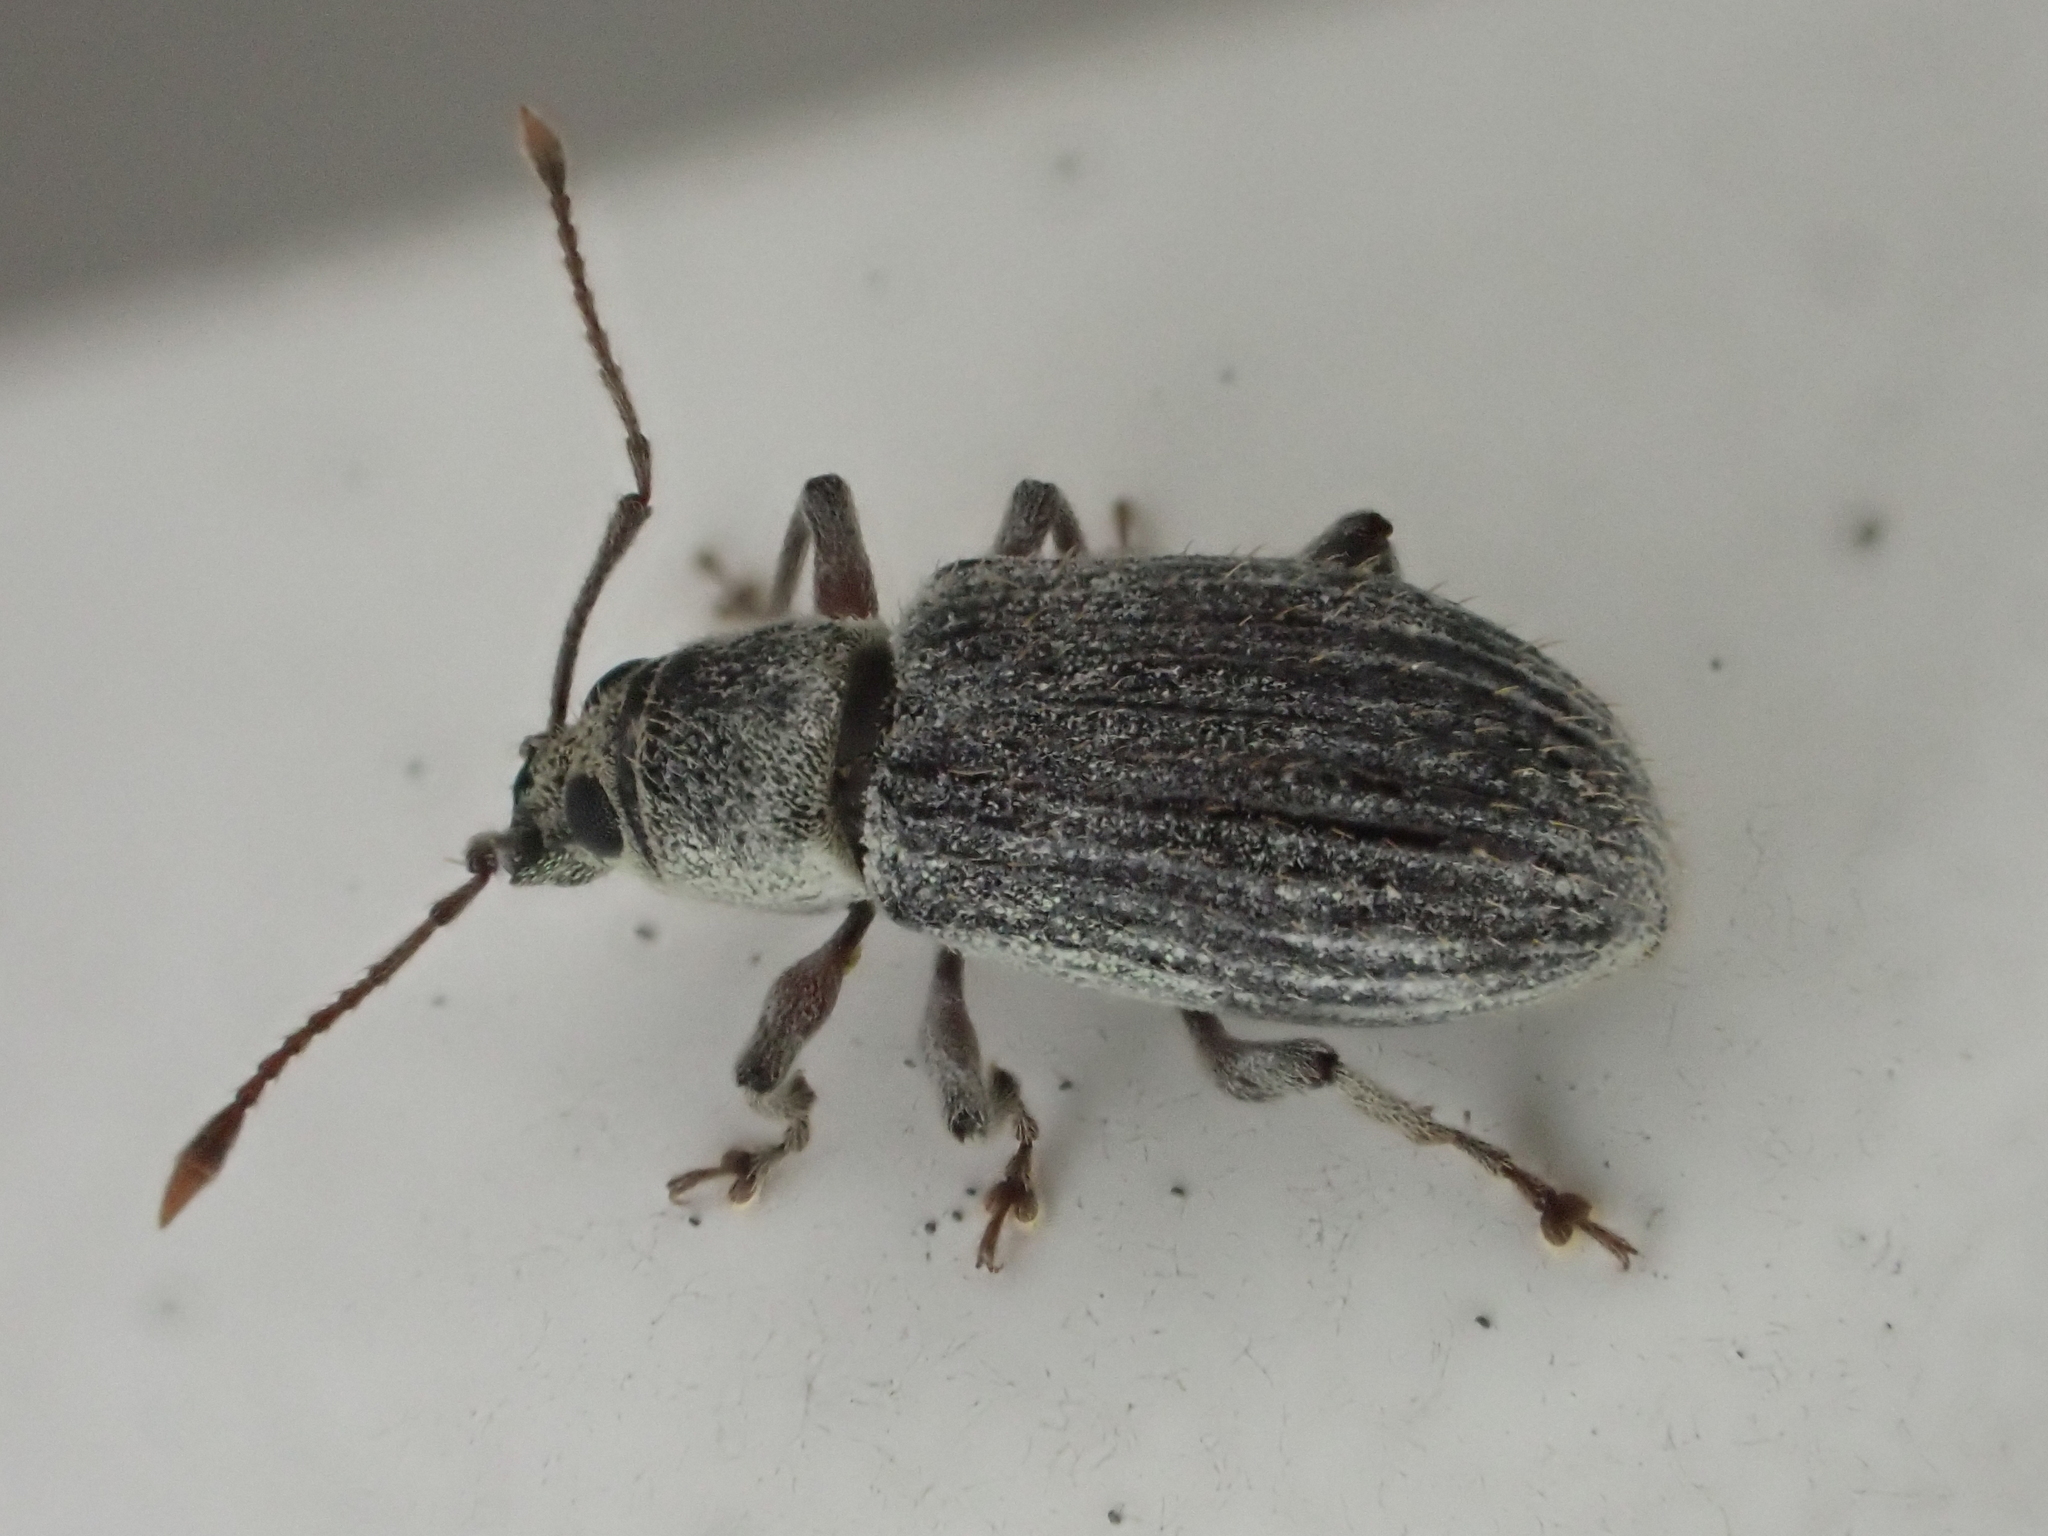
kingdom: Animalia
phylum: Arthropoda
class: Insecta
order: Coleoptera
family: Curculionidae
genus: Cyrtepistomus
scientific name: Cyrtepistomus castaneus
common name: Weevil
